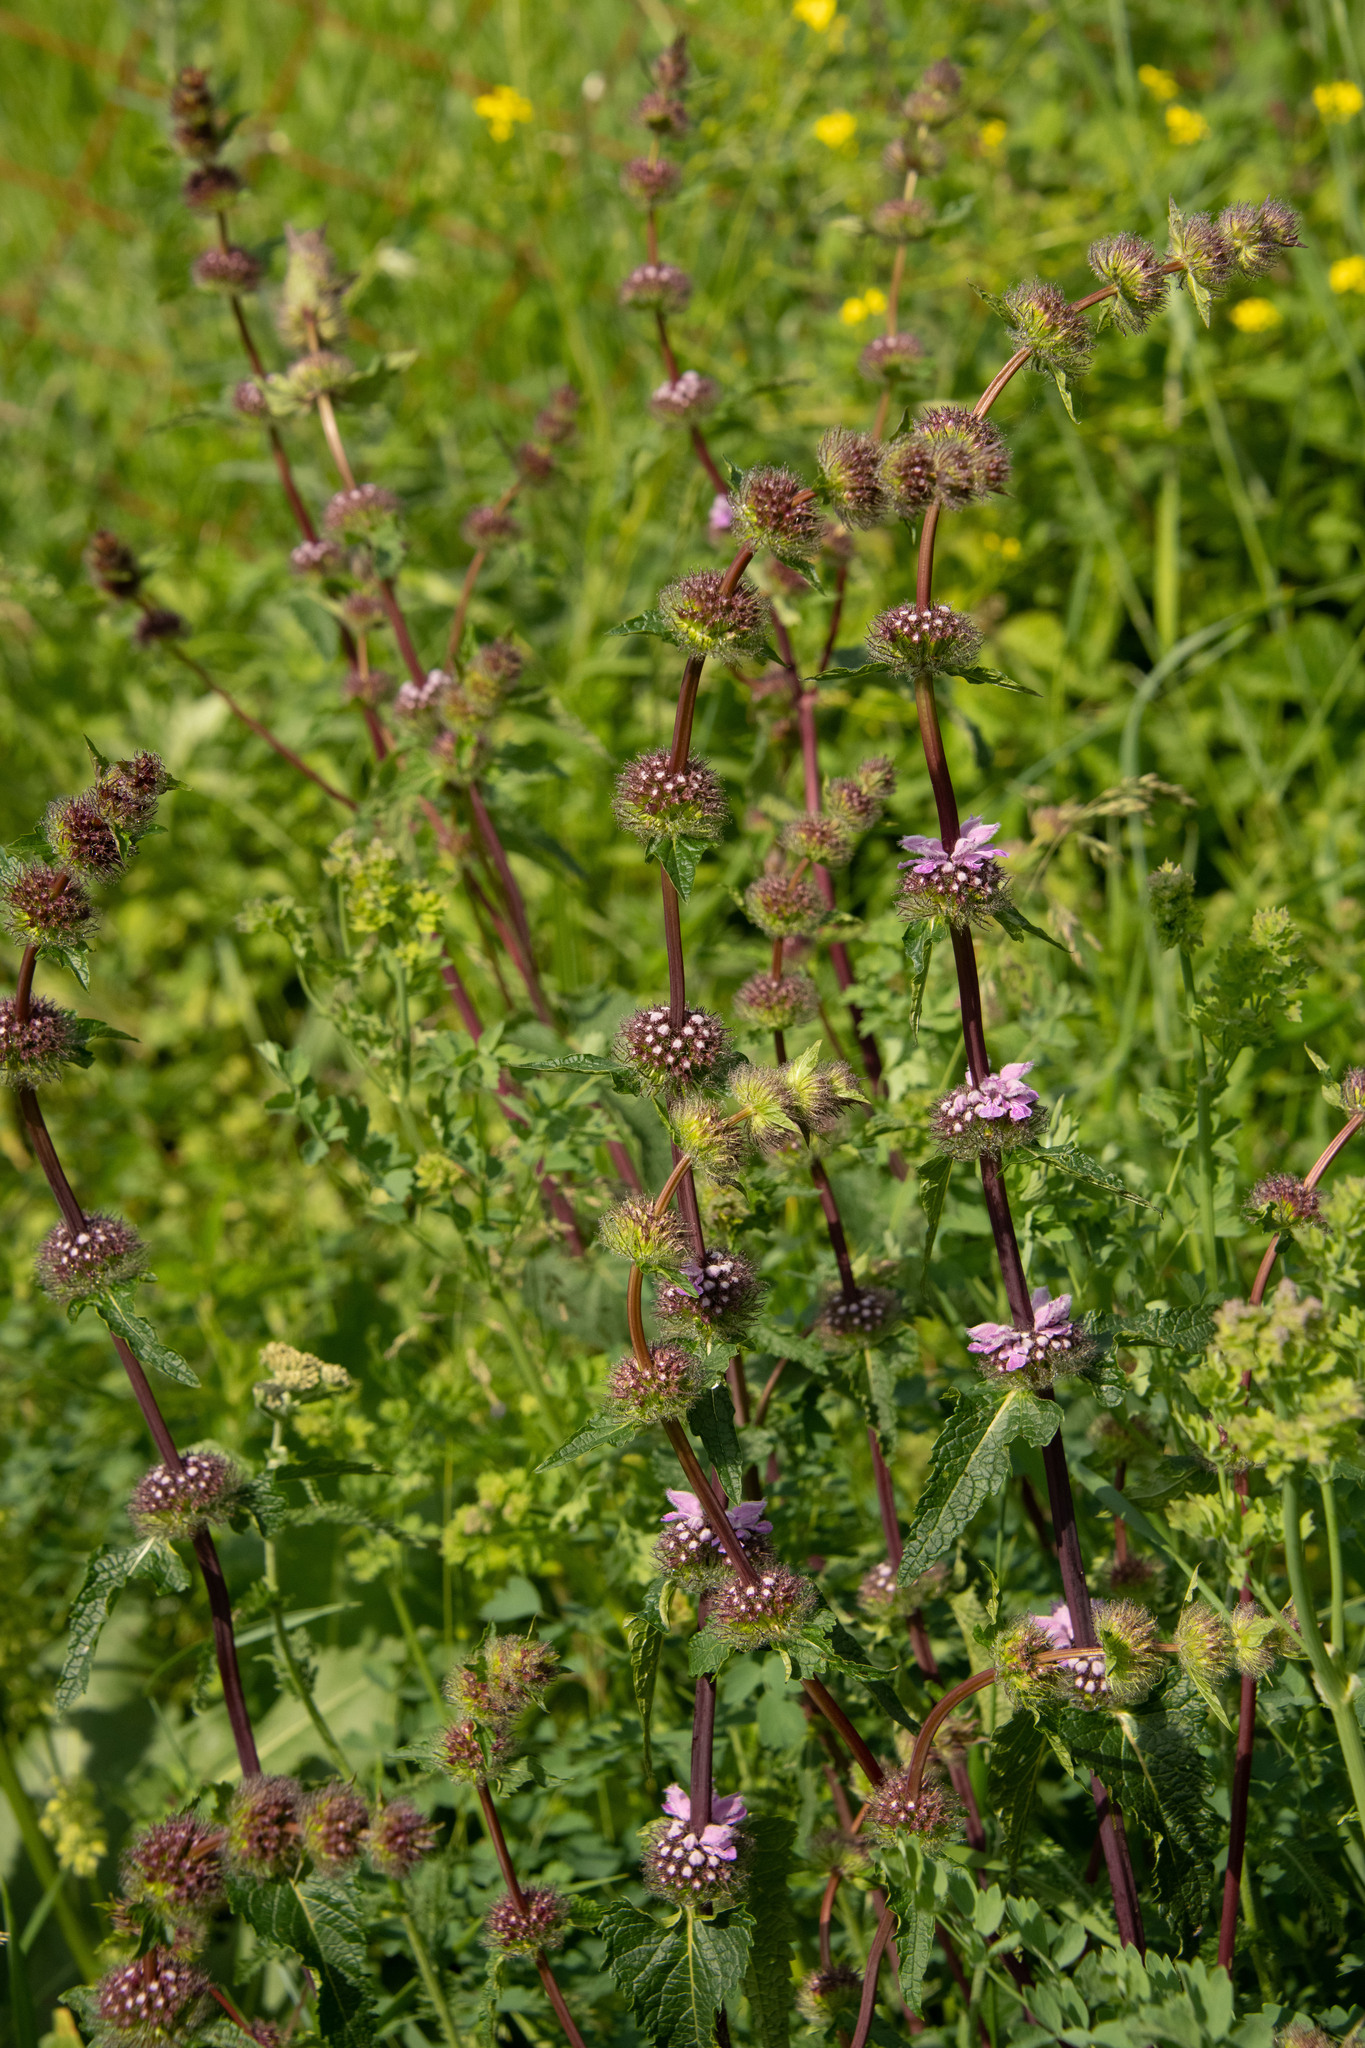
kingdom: Plantae
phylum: Tracheophyta
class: Magnoliopsida
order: Lamiales
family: Lamiaceae
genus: Phlomoides
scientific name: Phlomoides tuberosa
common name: Tuberous jerusalem sage
